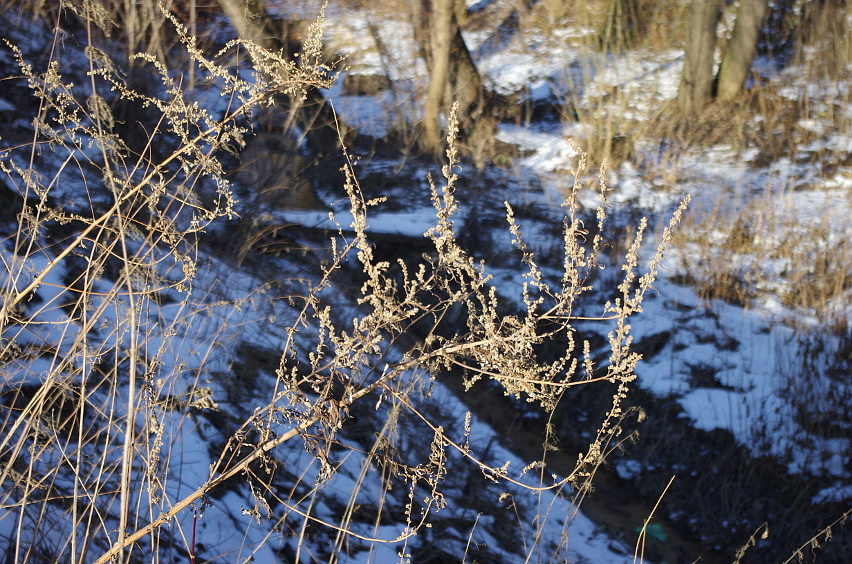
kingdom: Plantae
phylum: Tracheophyta
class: Magnoliopsida
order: Asterales
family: Asteraceae
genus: Artemisia
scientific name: Artemisia vulgaris
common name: Mugwort
